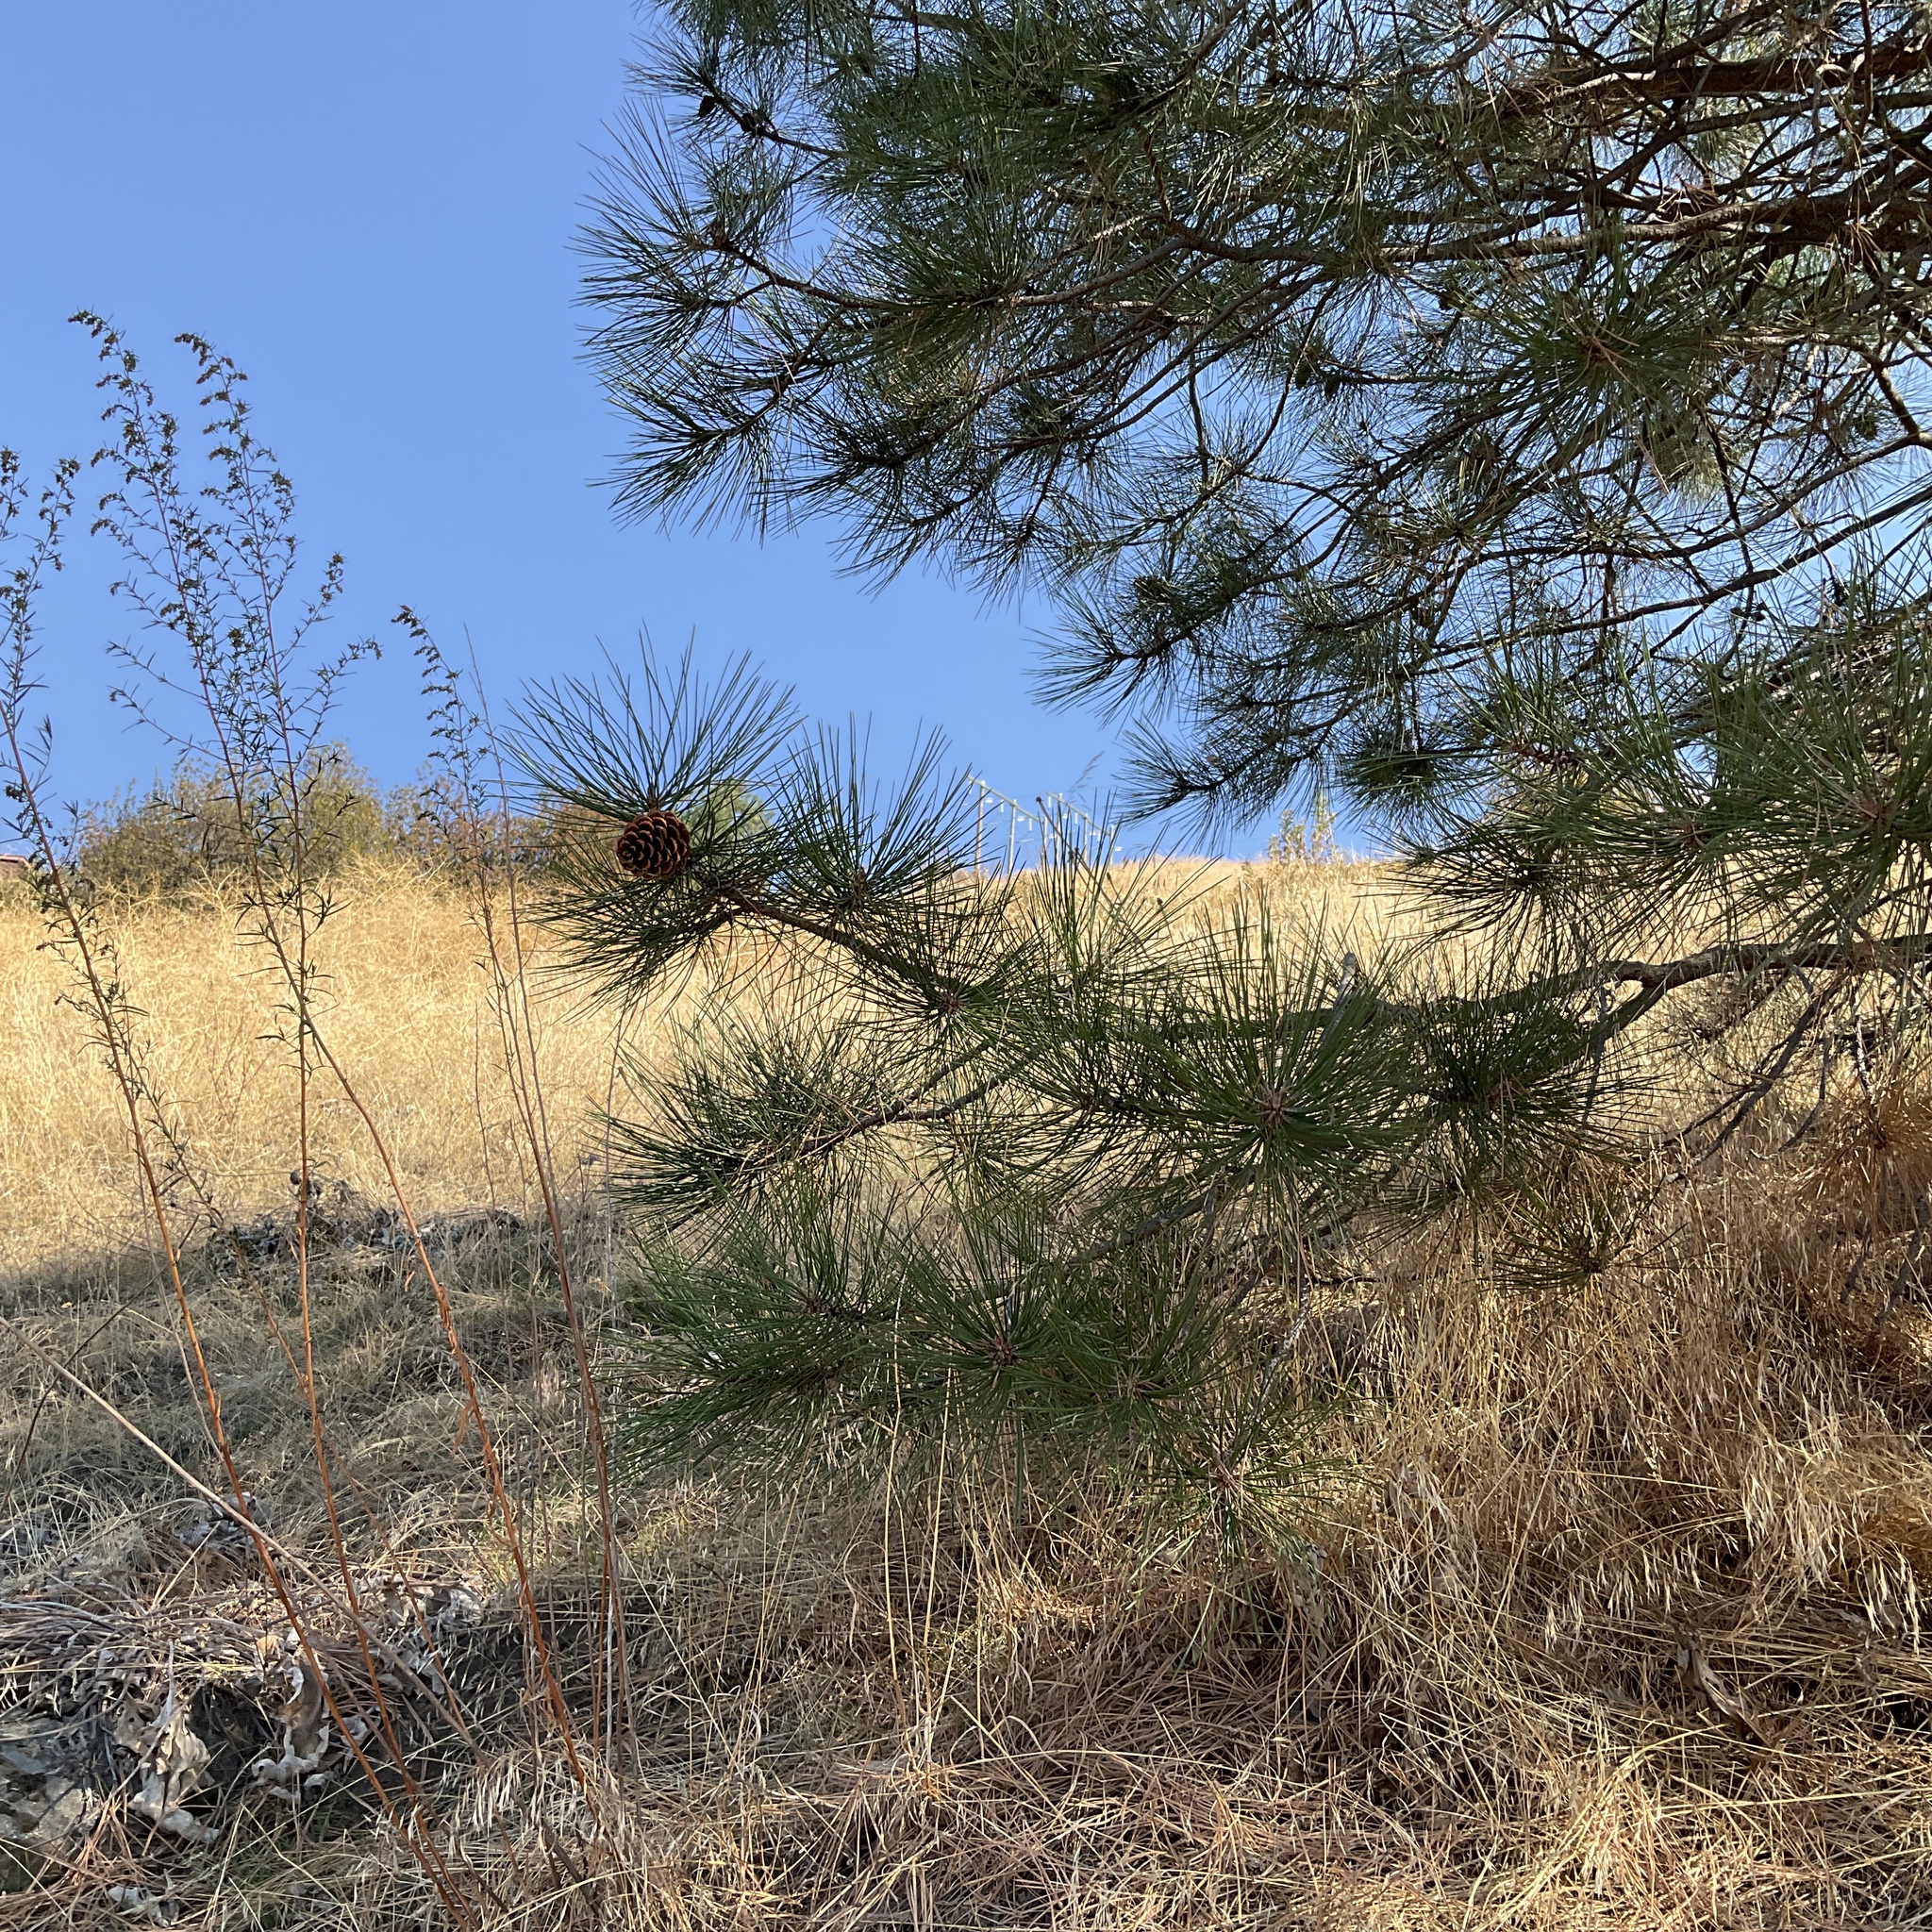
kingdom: Plantae
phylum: Tracheophyta
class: Pinopsida
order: Pinales
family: Pinaceae
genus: Pinus
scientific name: Pinus ponderosa
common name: Western yellow-pine
